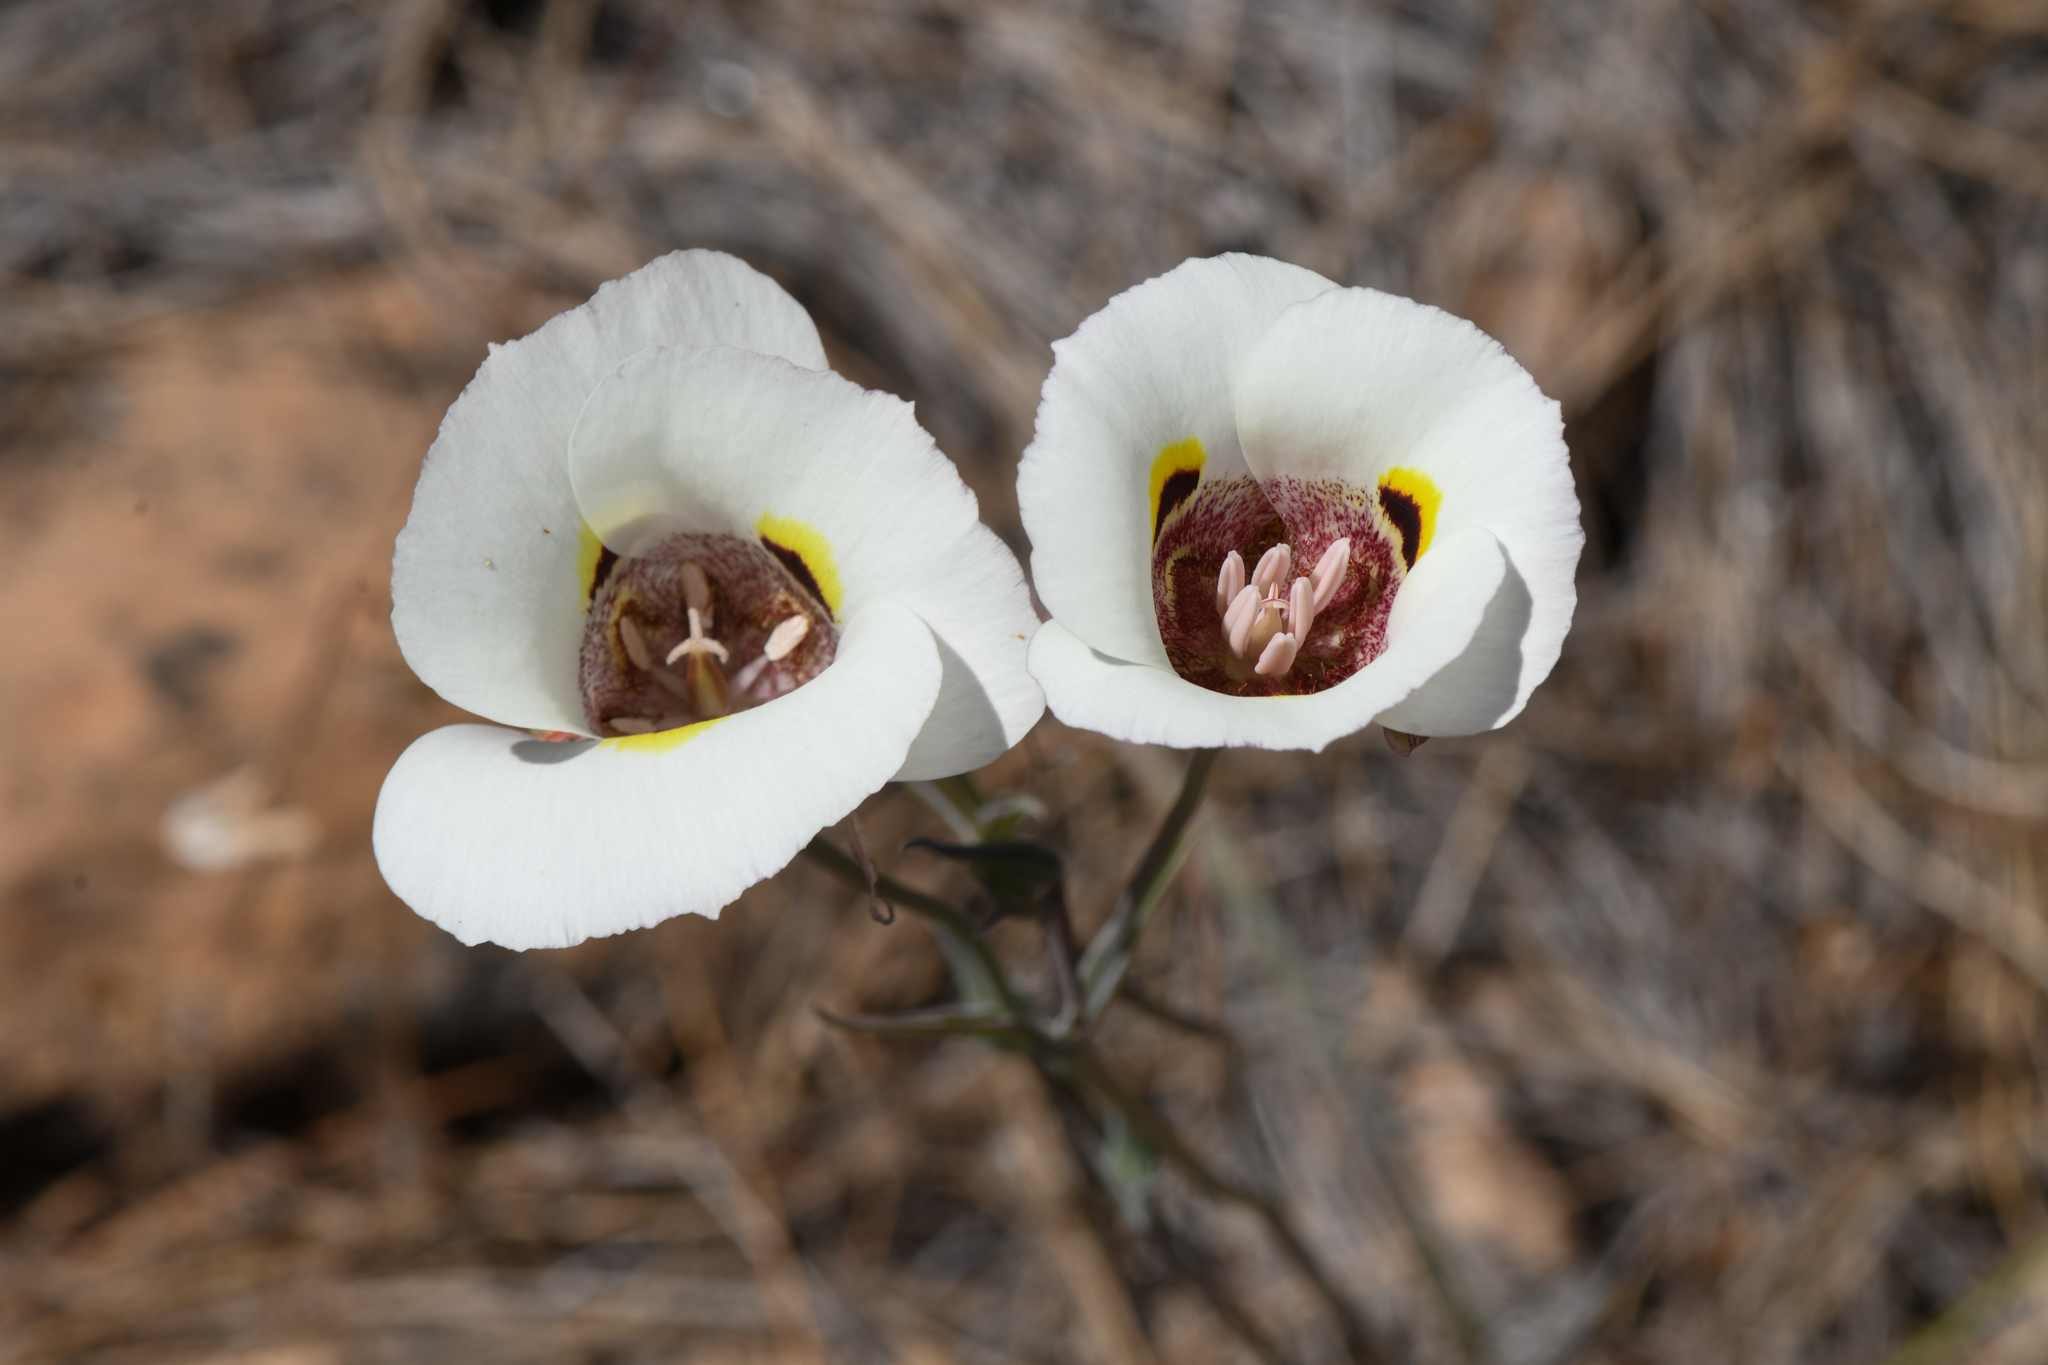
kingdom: Plantae
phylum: Tracheophyta
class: Liliopsida
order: Liliales
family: Liliaceae
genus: Calochortus
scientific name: Calochortus superbus
